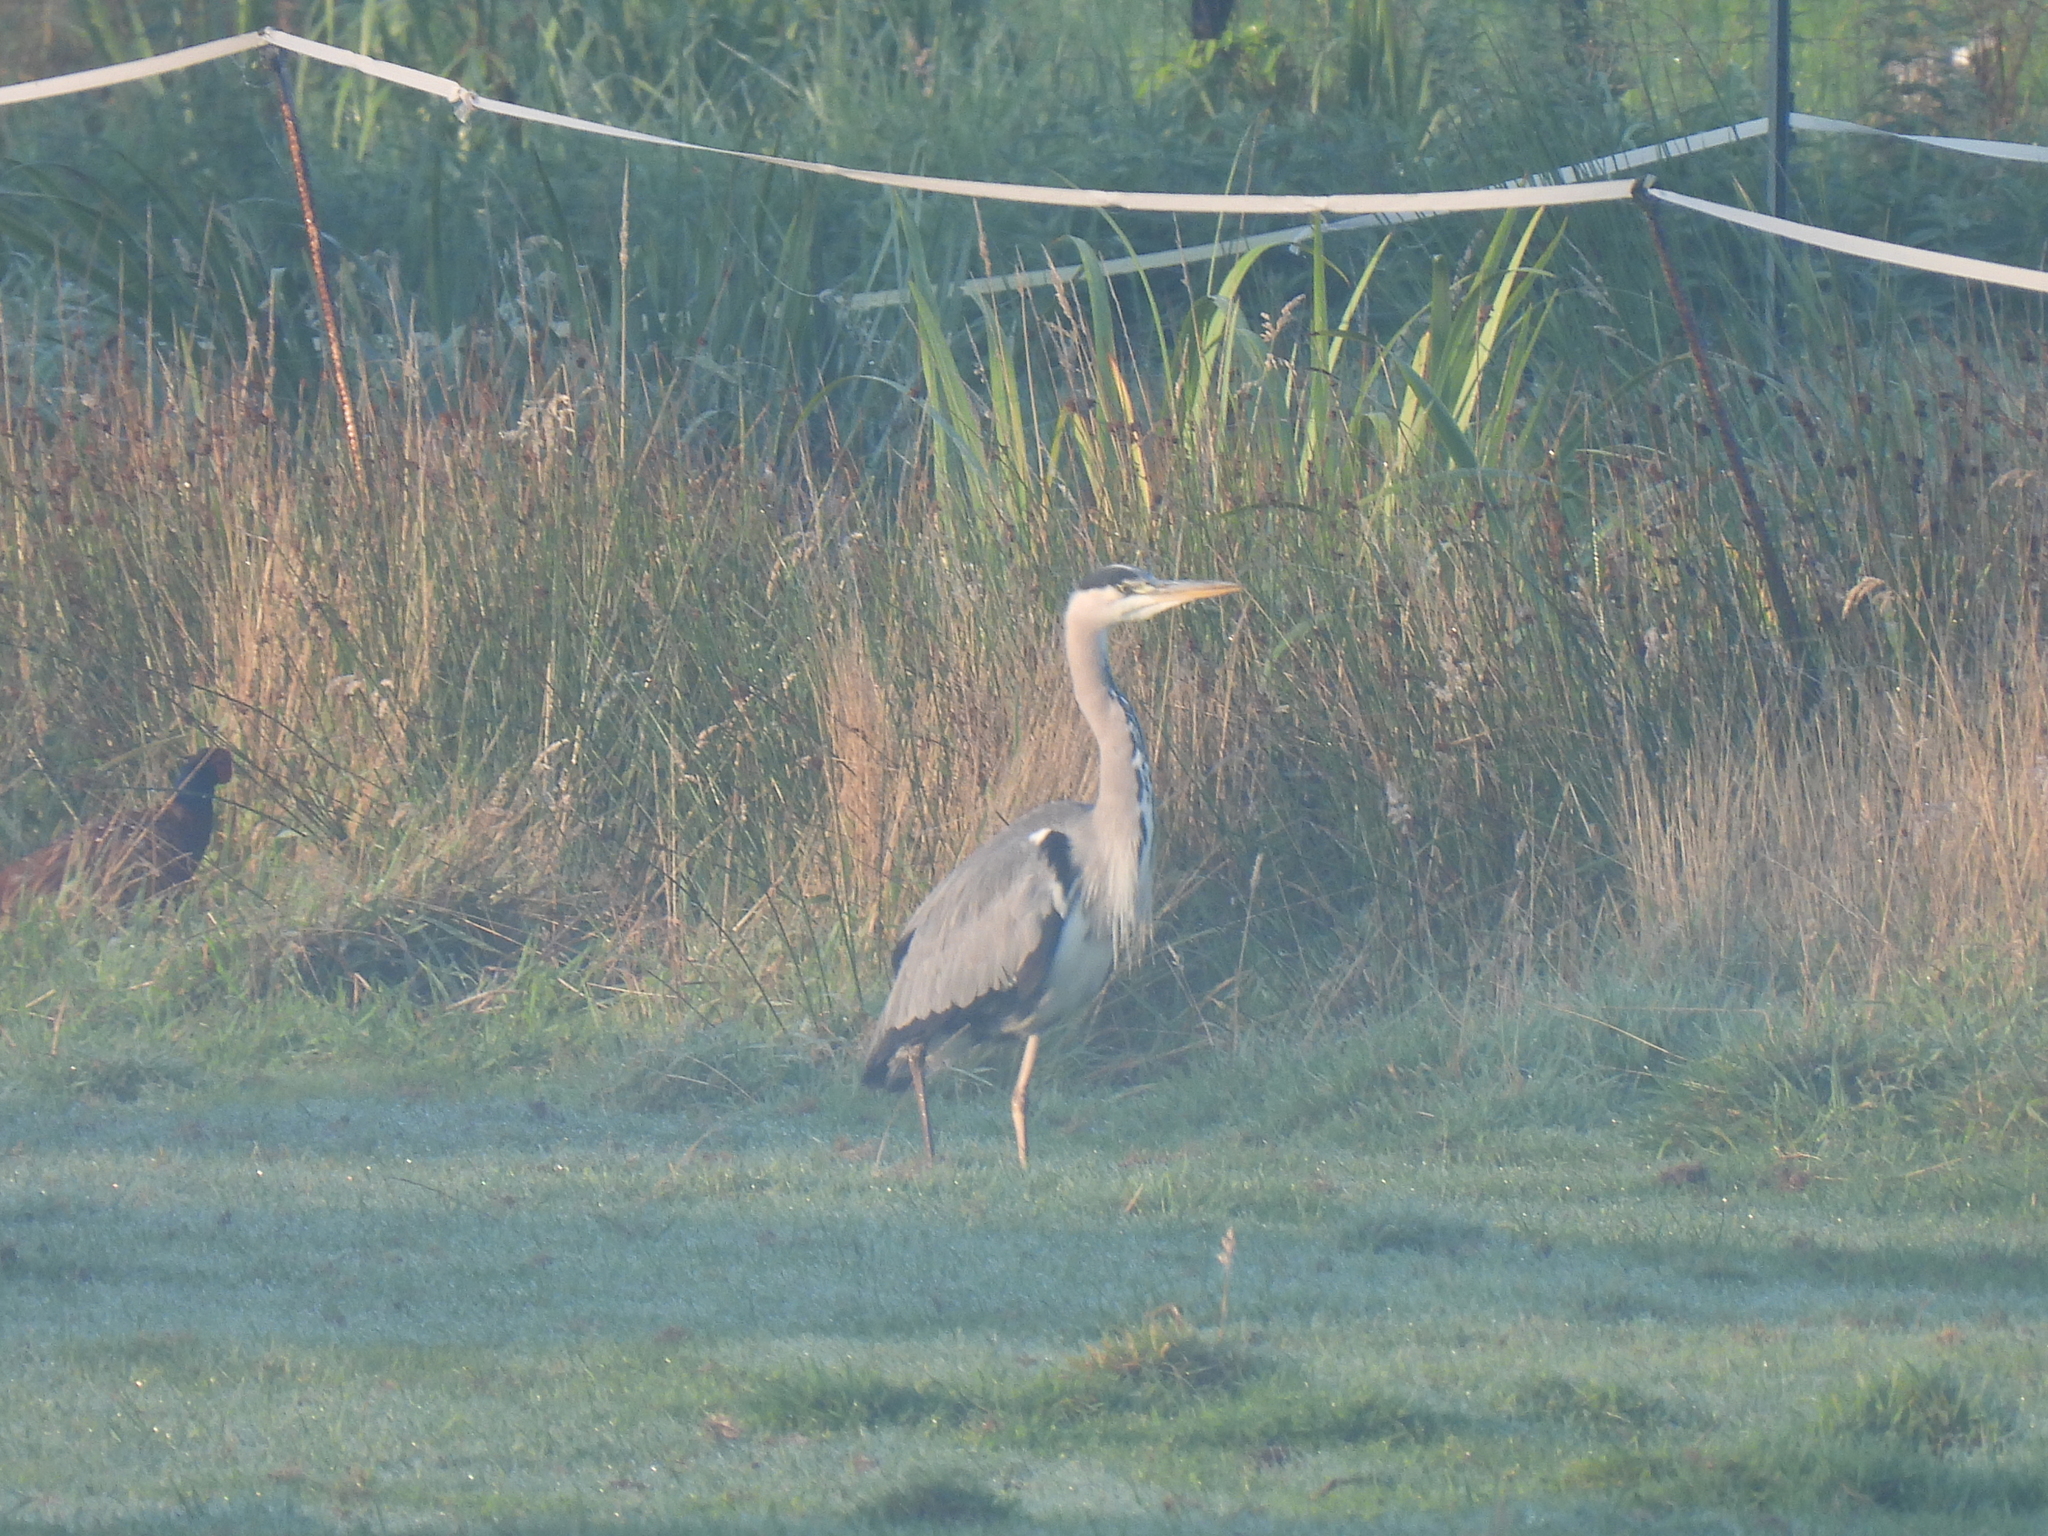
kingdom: Animalia
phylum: Chordata
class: Aves
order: Pelecaniformes
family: Ardeidae
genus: Ardea
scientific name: Ardea cinerea
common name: Grey heron
